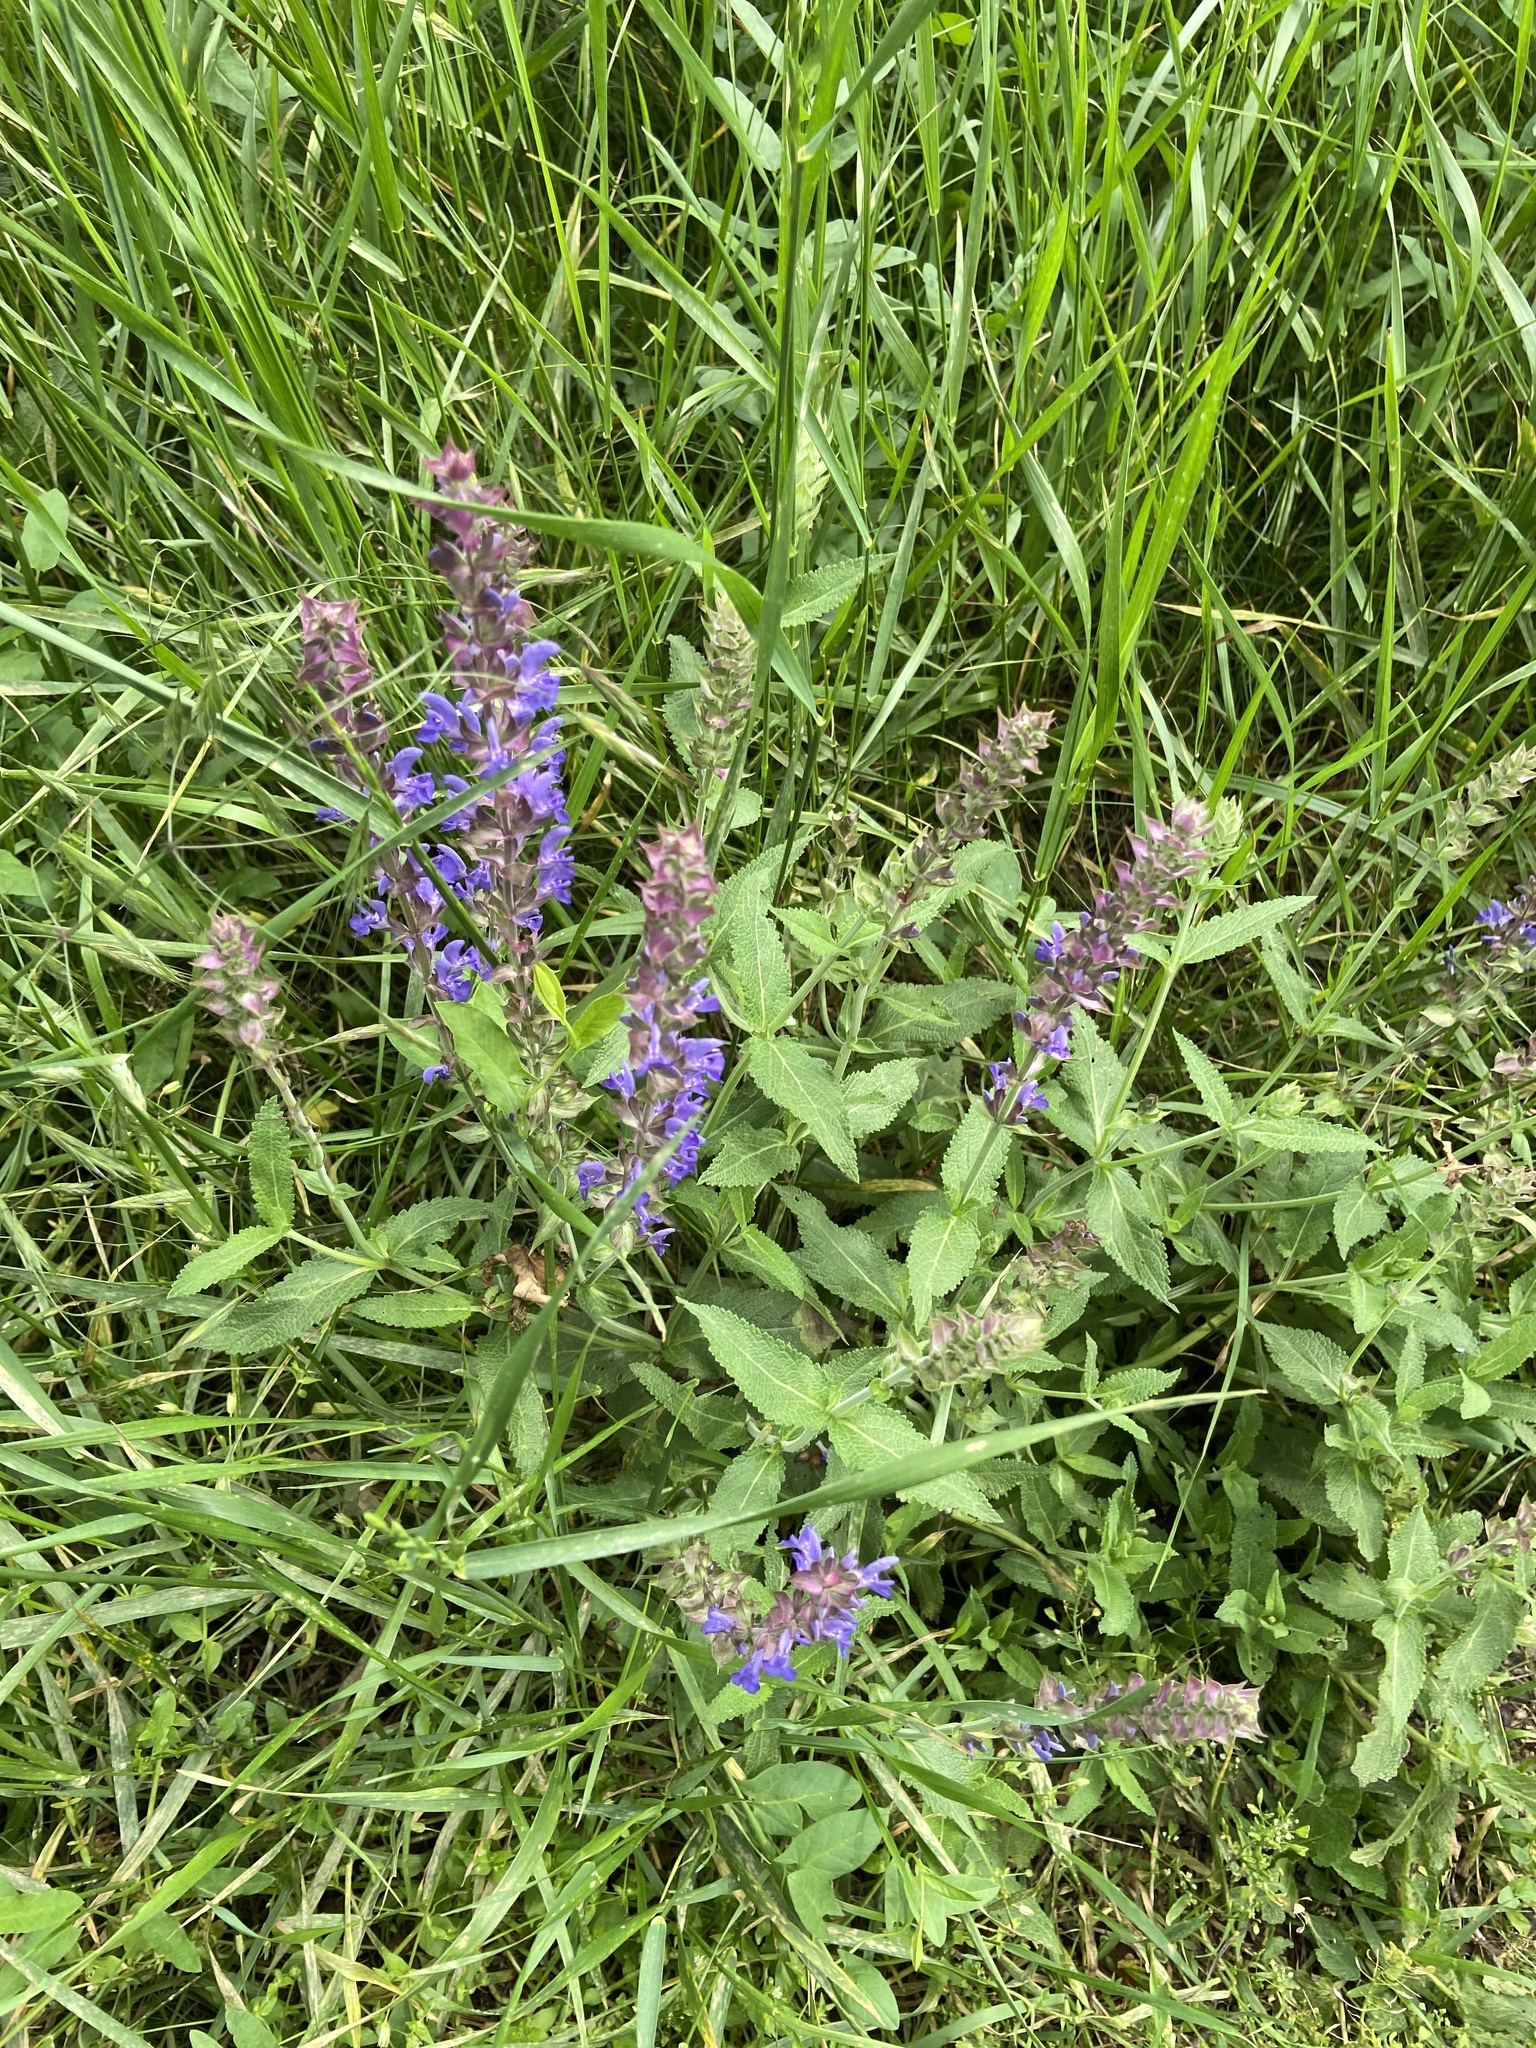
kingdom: Plantae
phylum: Tracheophyta
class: Magnoliopsida
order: Lamiales
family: Lamiaceae
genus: Salvia
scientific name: Salvia nemorosa
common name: Balkan clary
